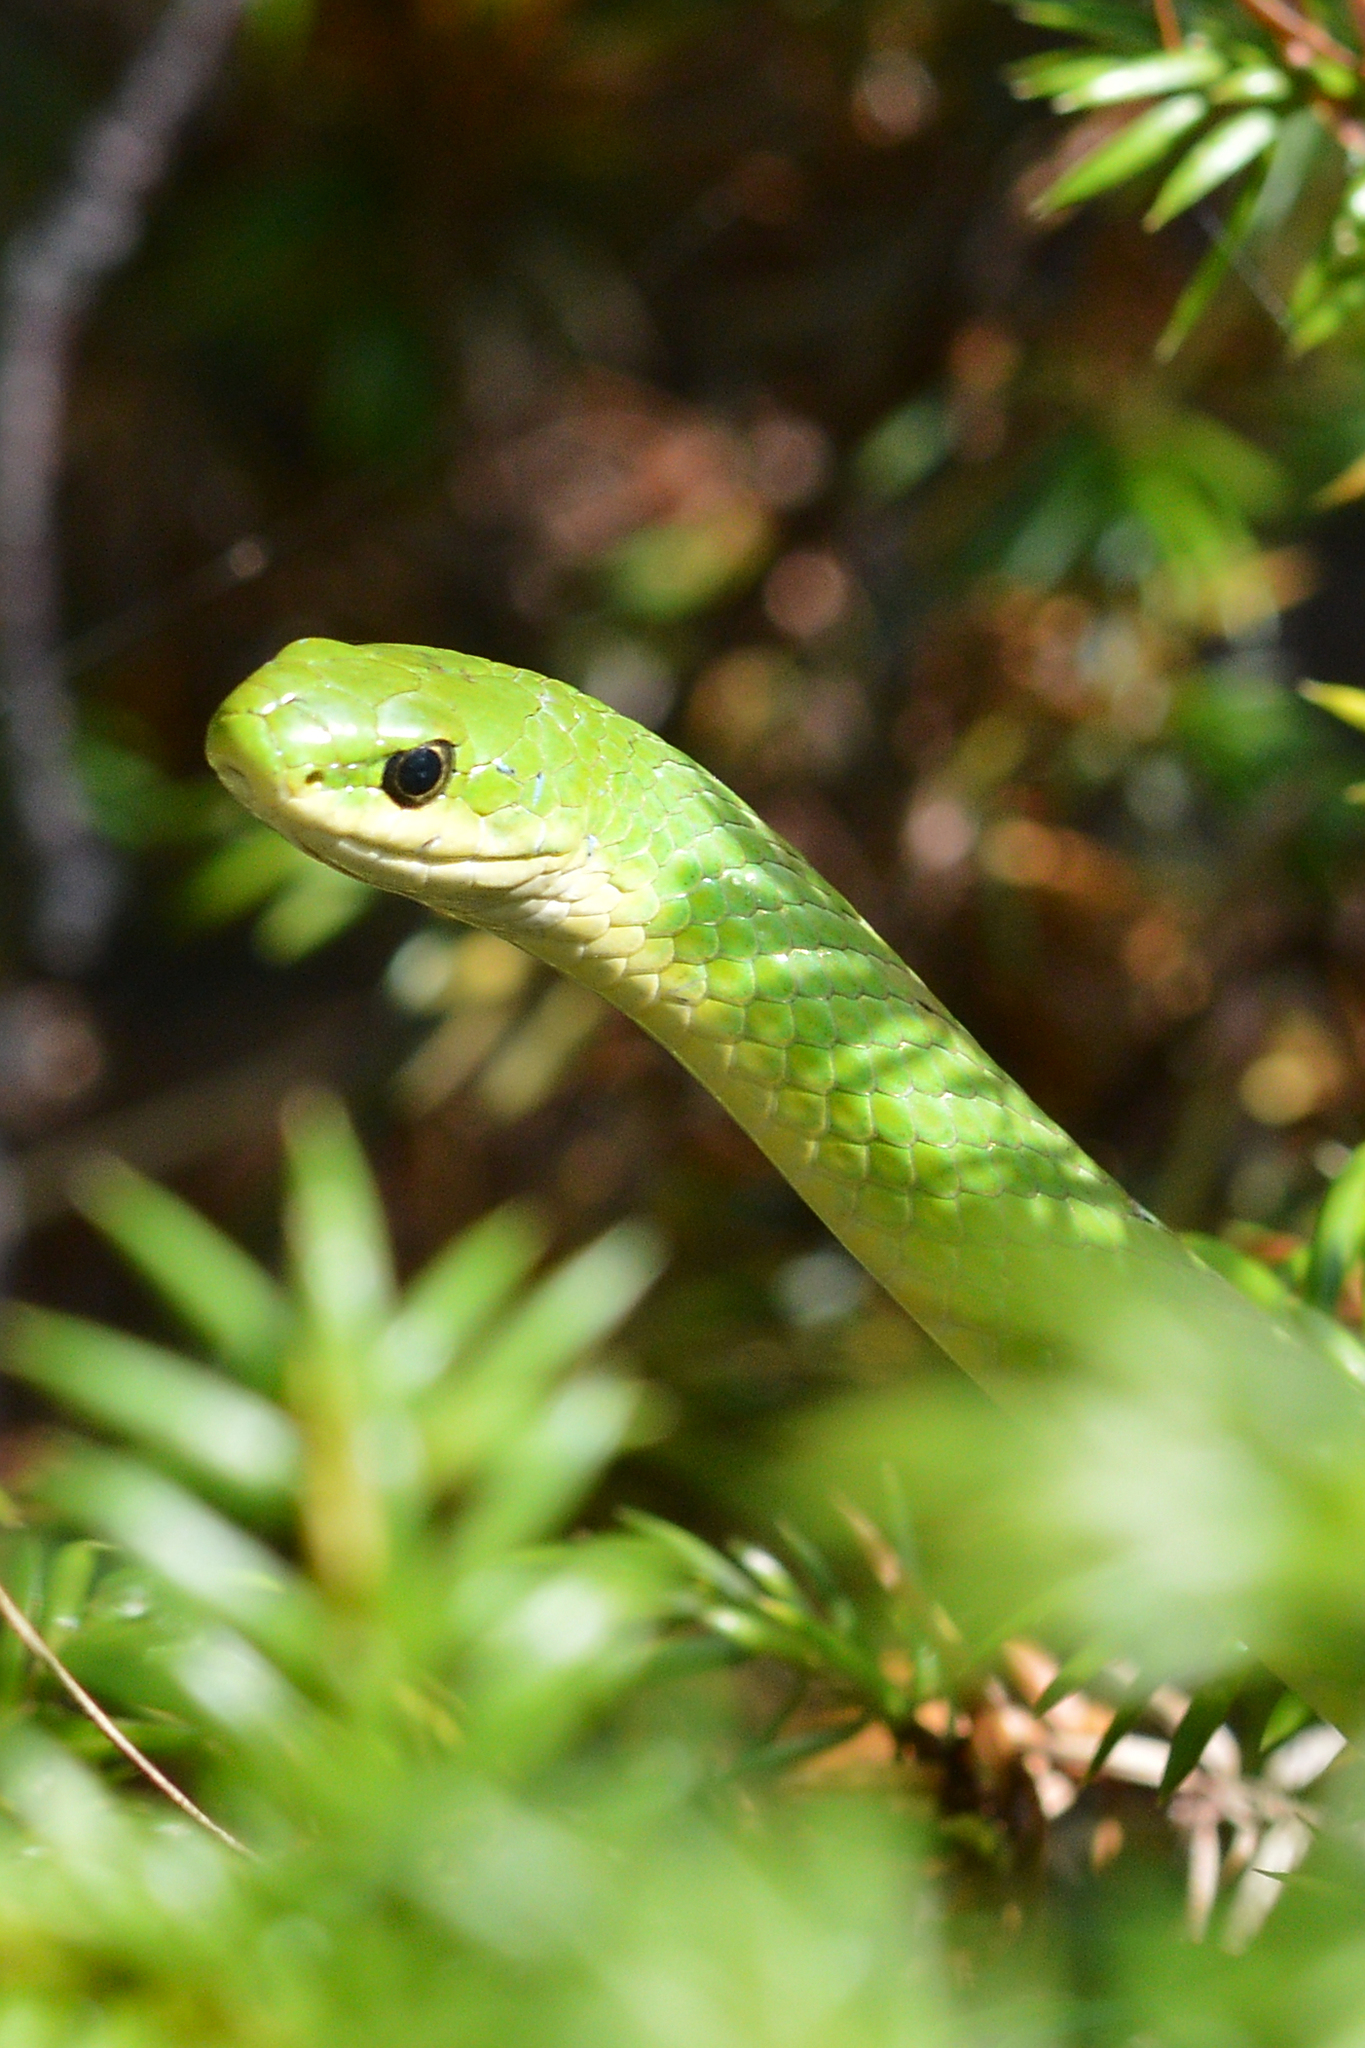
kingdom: Animalia
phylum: Chordata
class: Squamata
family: Colubridae
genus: Opheodrys
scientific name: Opheodrys vernalis
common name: Smooth green snake
